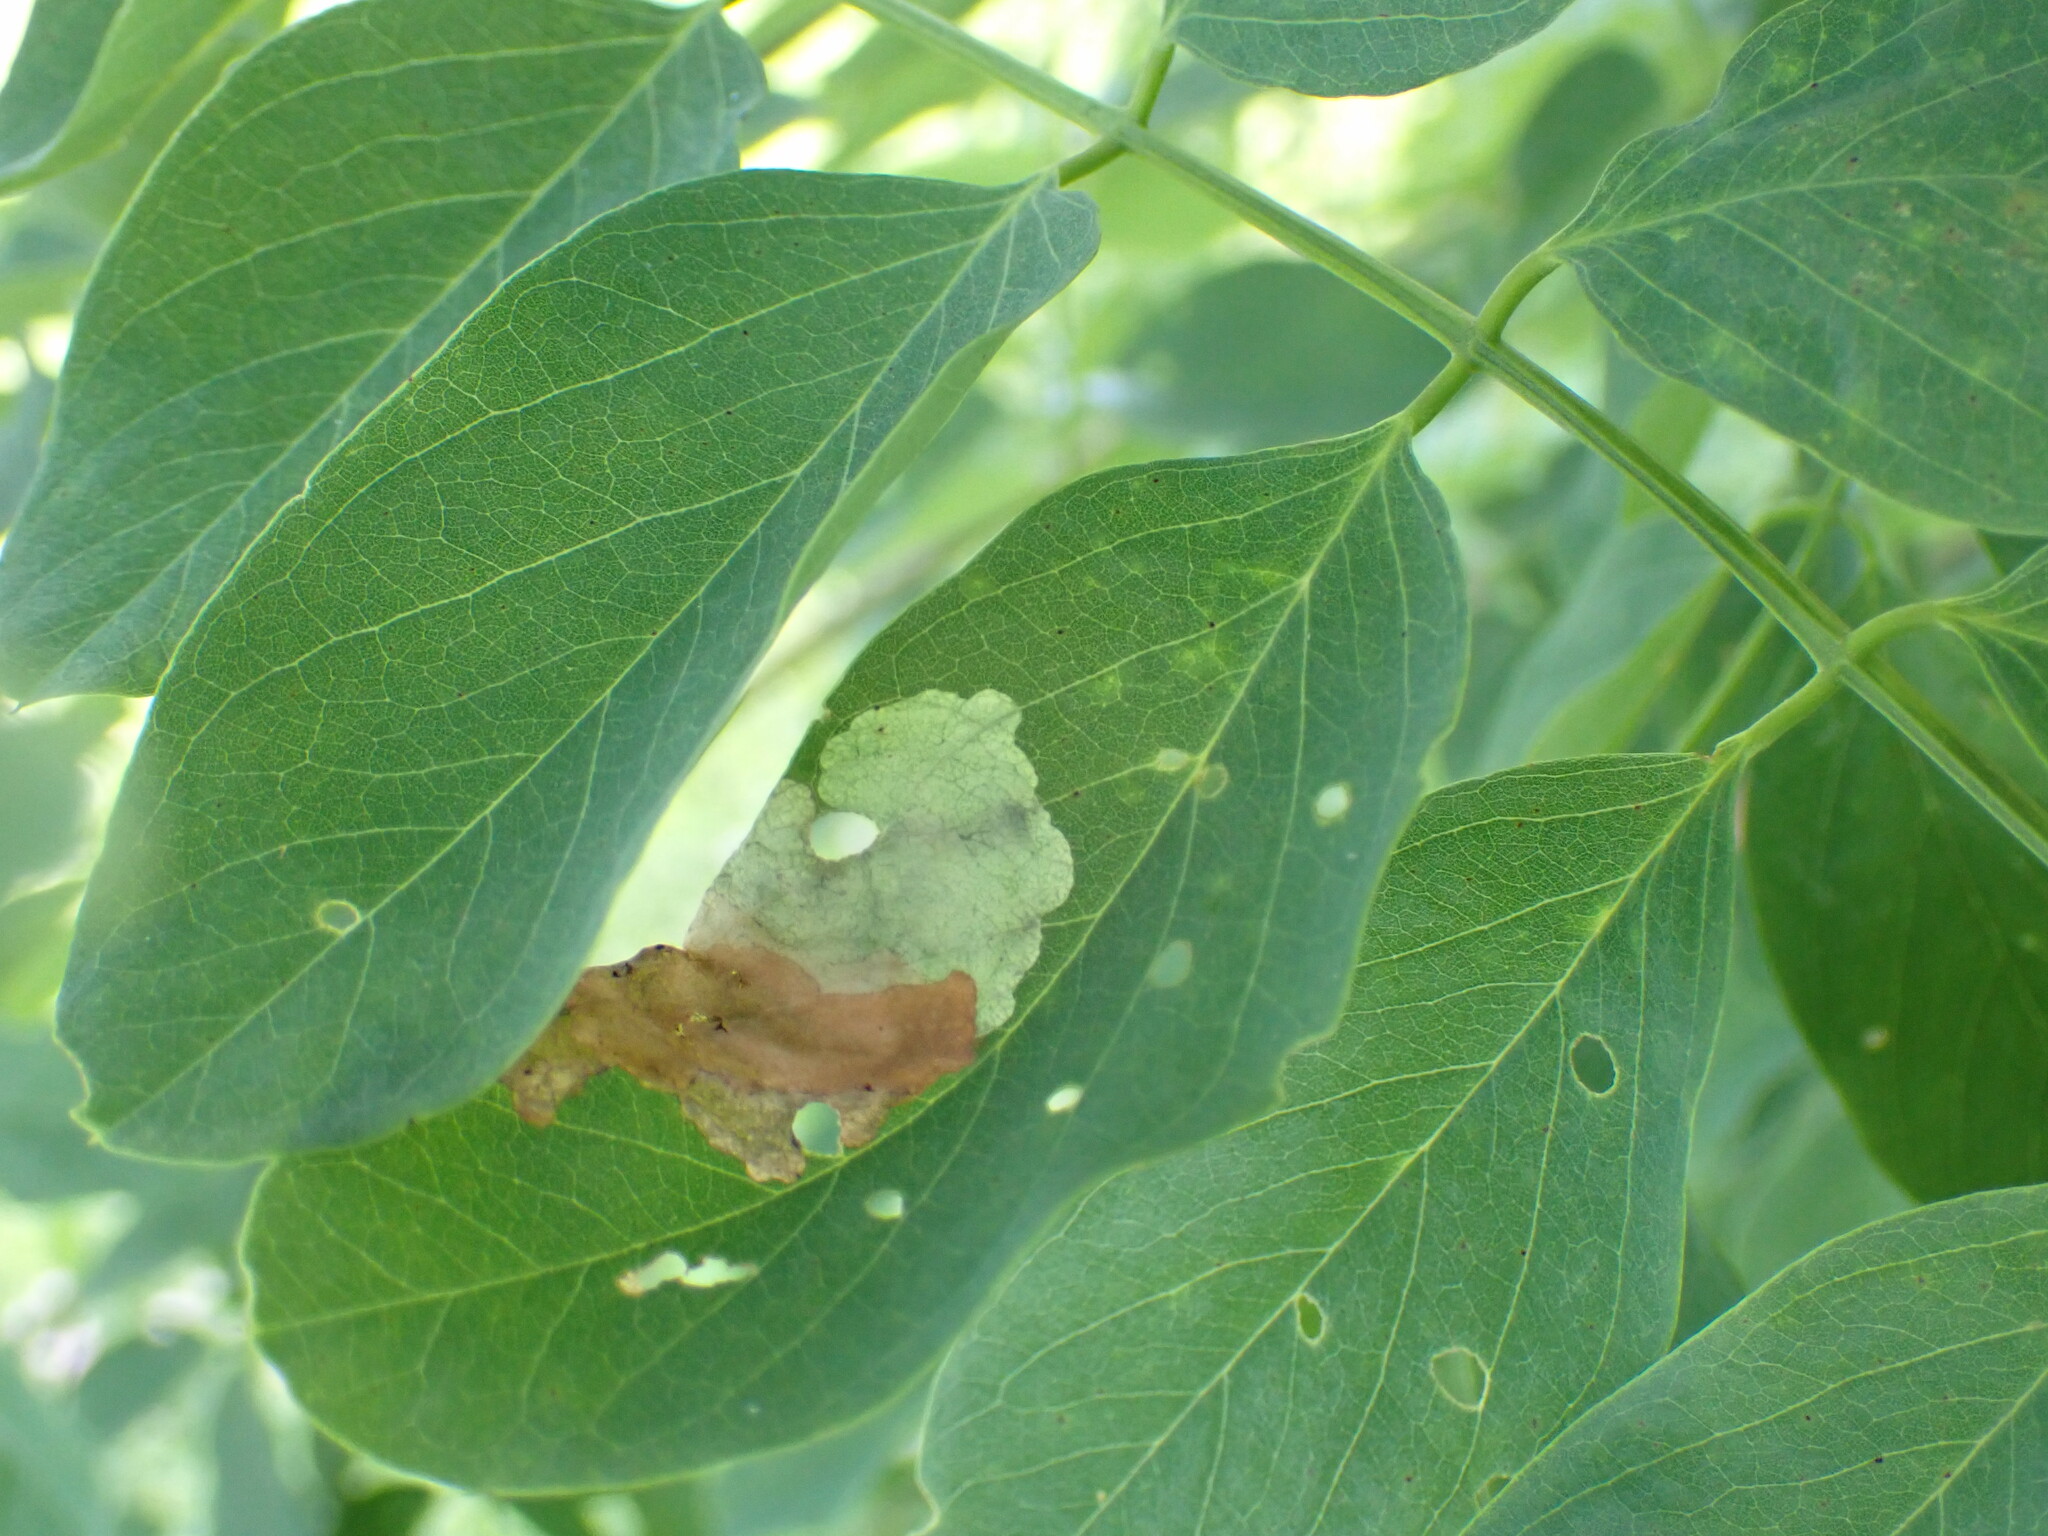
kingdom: Animalia
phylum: Arthropoda
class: Insecta
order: Coleoptera
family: Chrysomelidae
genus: Odontota
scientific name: Odontota dorsalis
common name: Locust leaf-miner beetle
